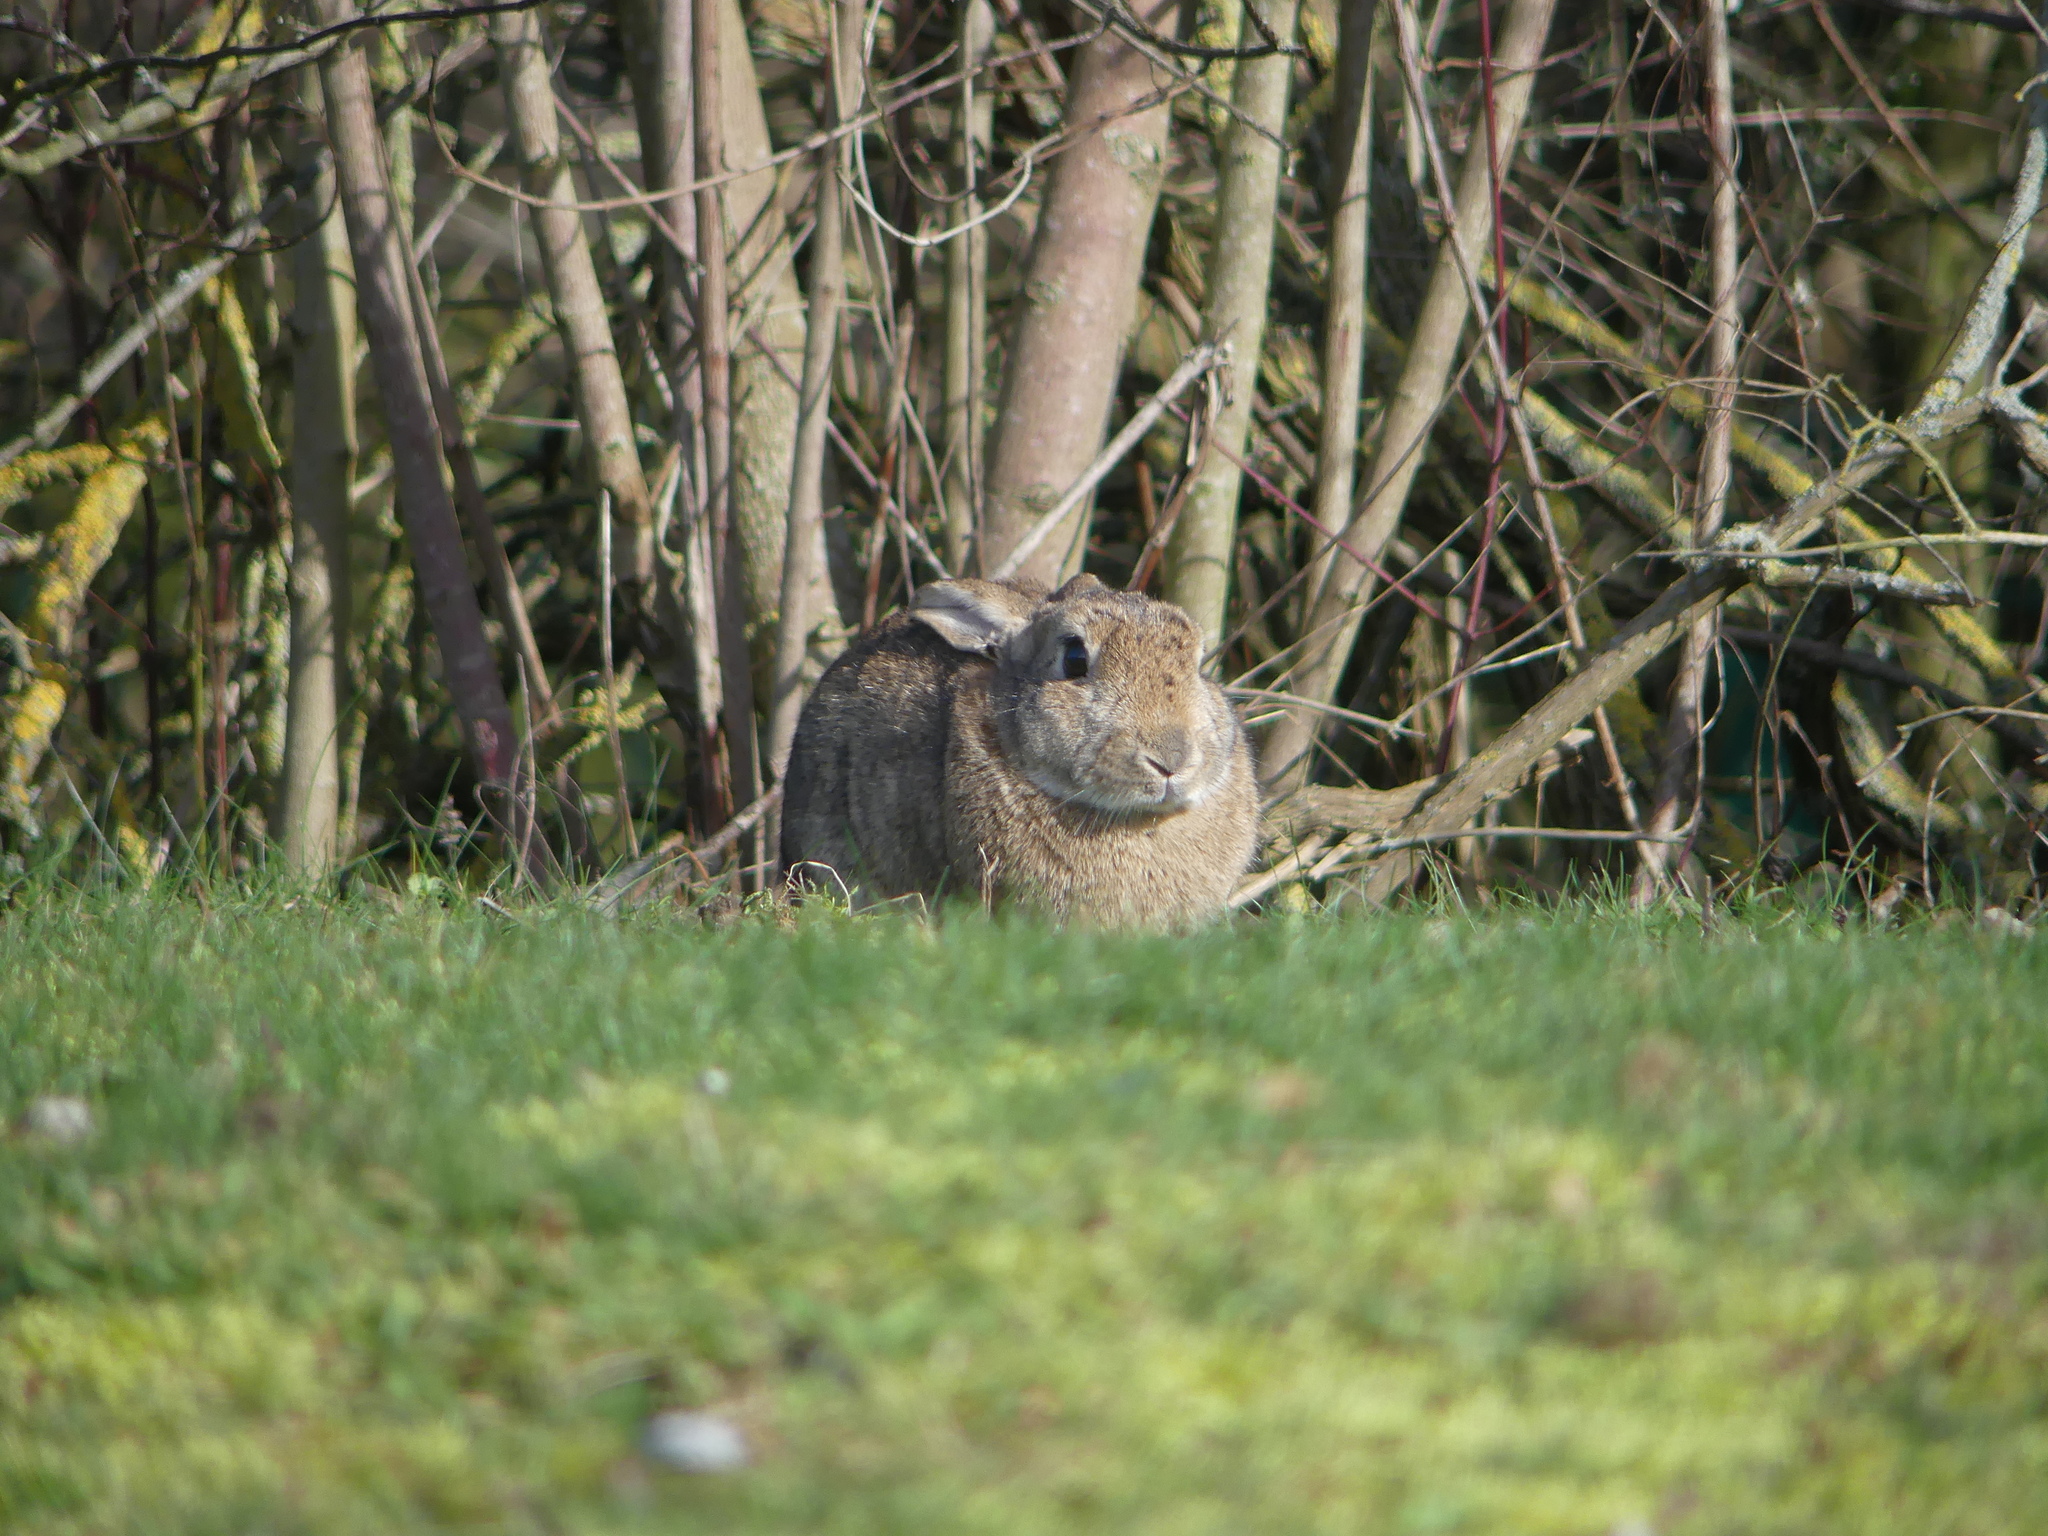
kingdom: Animalia
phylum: Chordata
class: Mammalia
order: Lagomorpha
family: Leporidae
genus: Oryctolagus
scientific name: Oryctolagus cuniculus
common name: European rabbit
